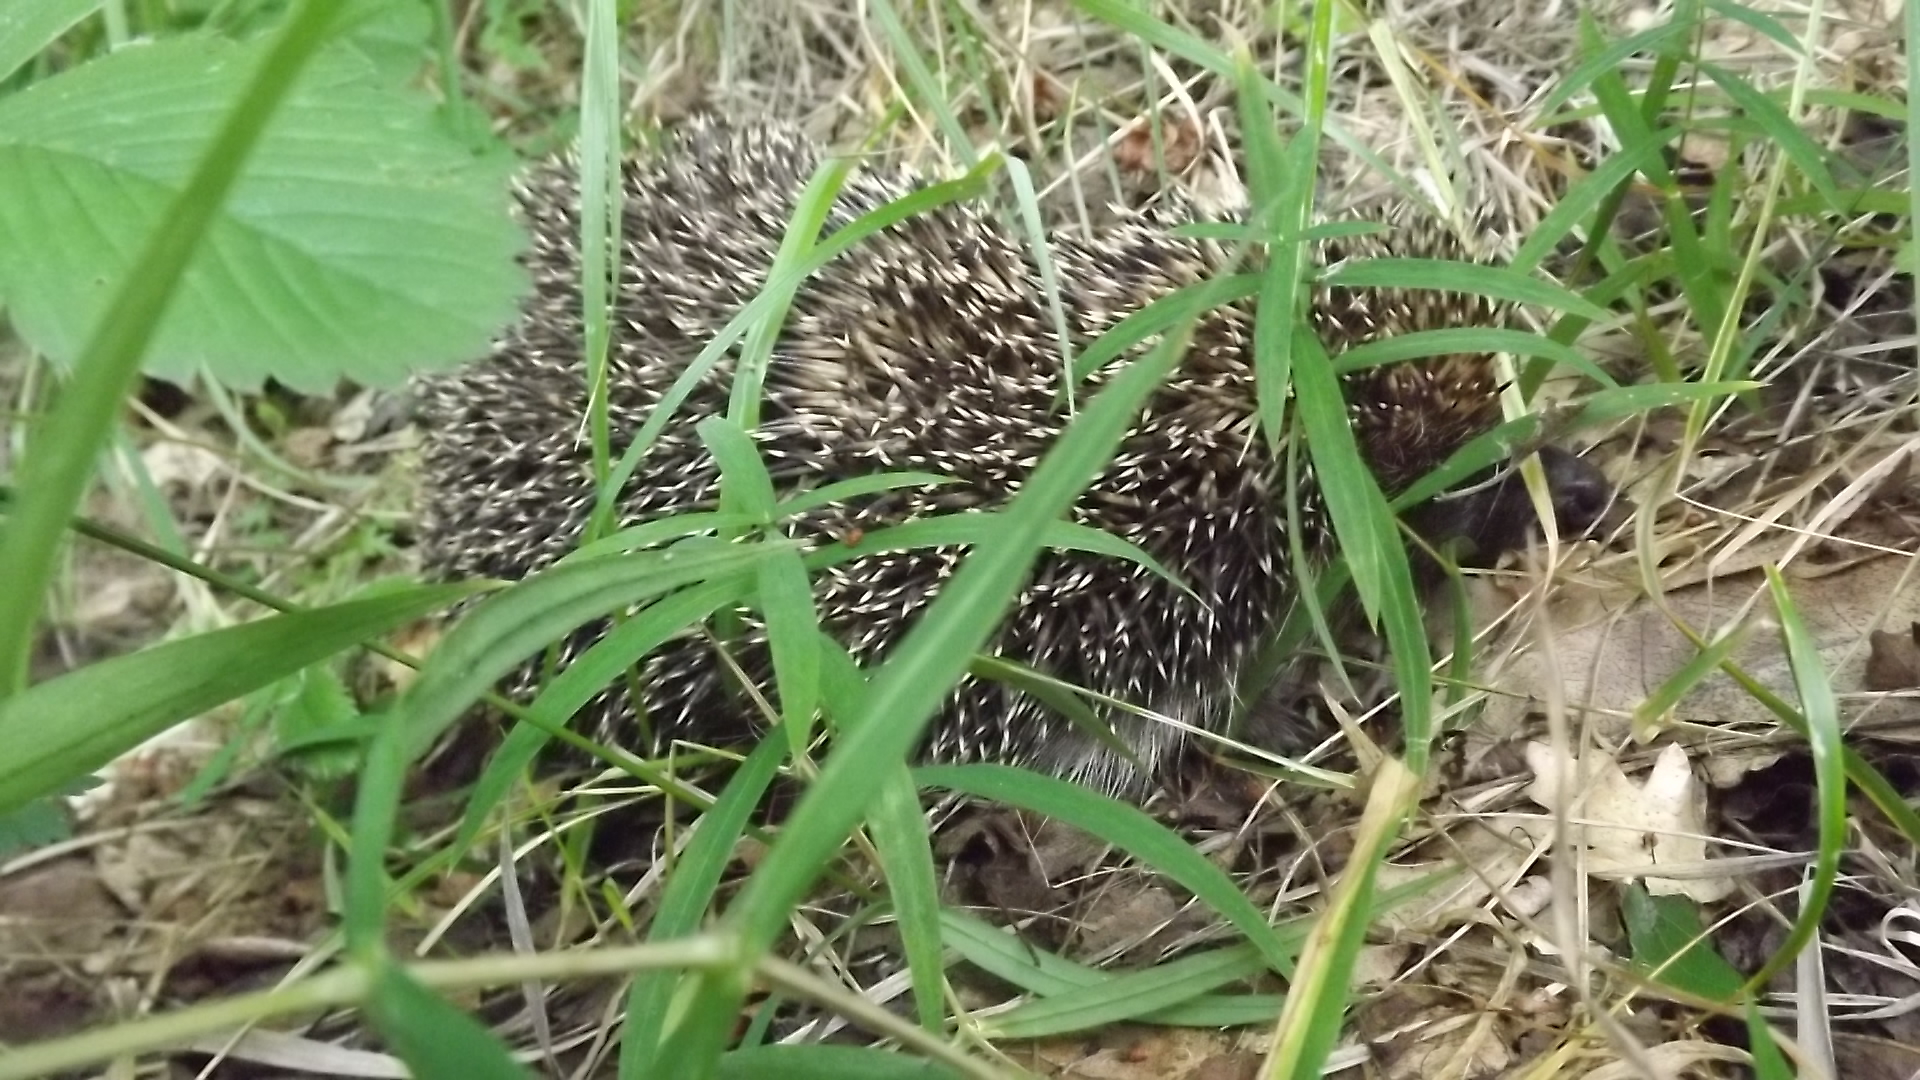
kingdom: Animalia
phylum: Chordata
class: Mammalia
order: Erinaceomorpha
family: Erinaceidae
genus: Erinaceus
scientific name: Erinaceus roumanicus
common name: Northern white-breasted hedgehog
